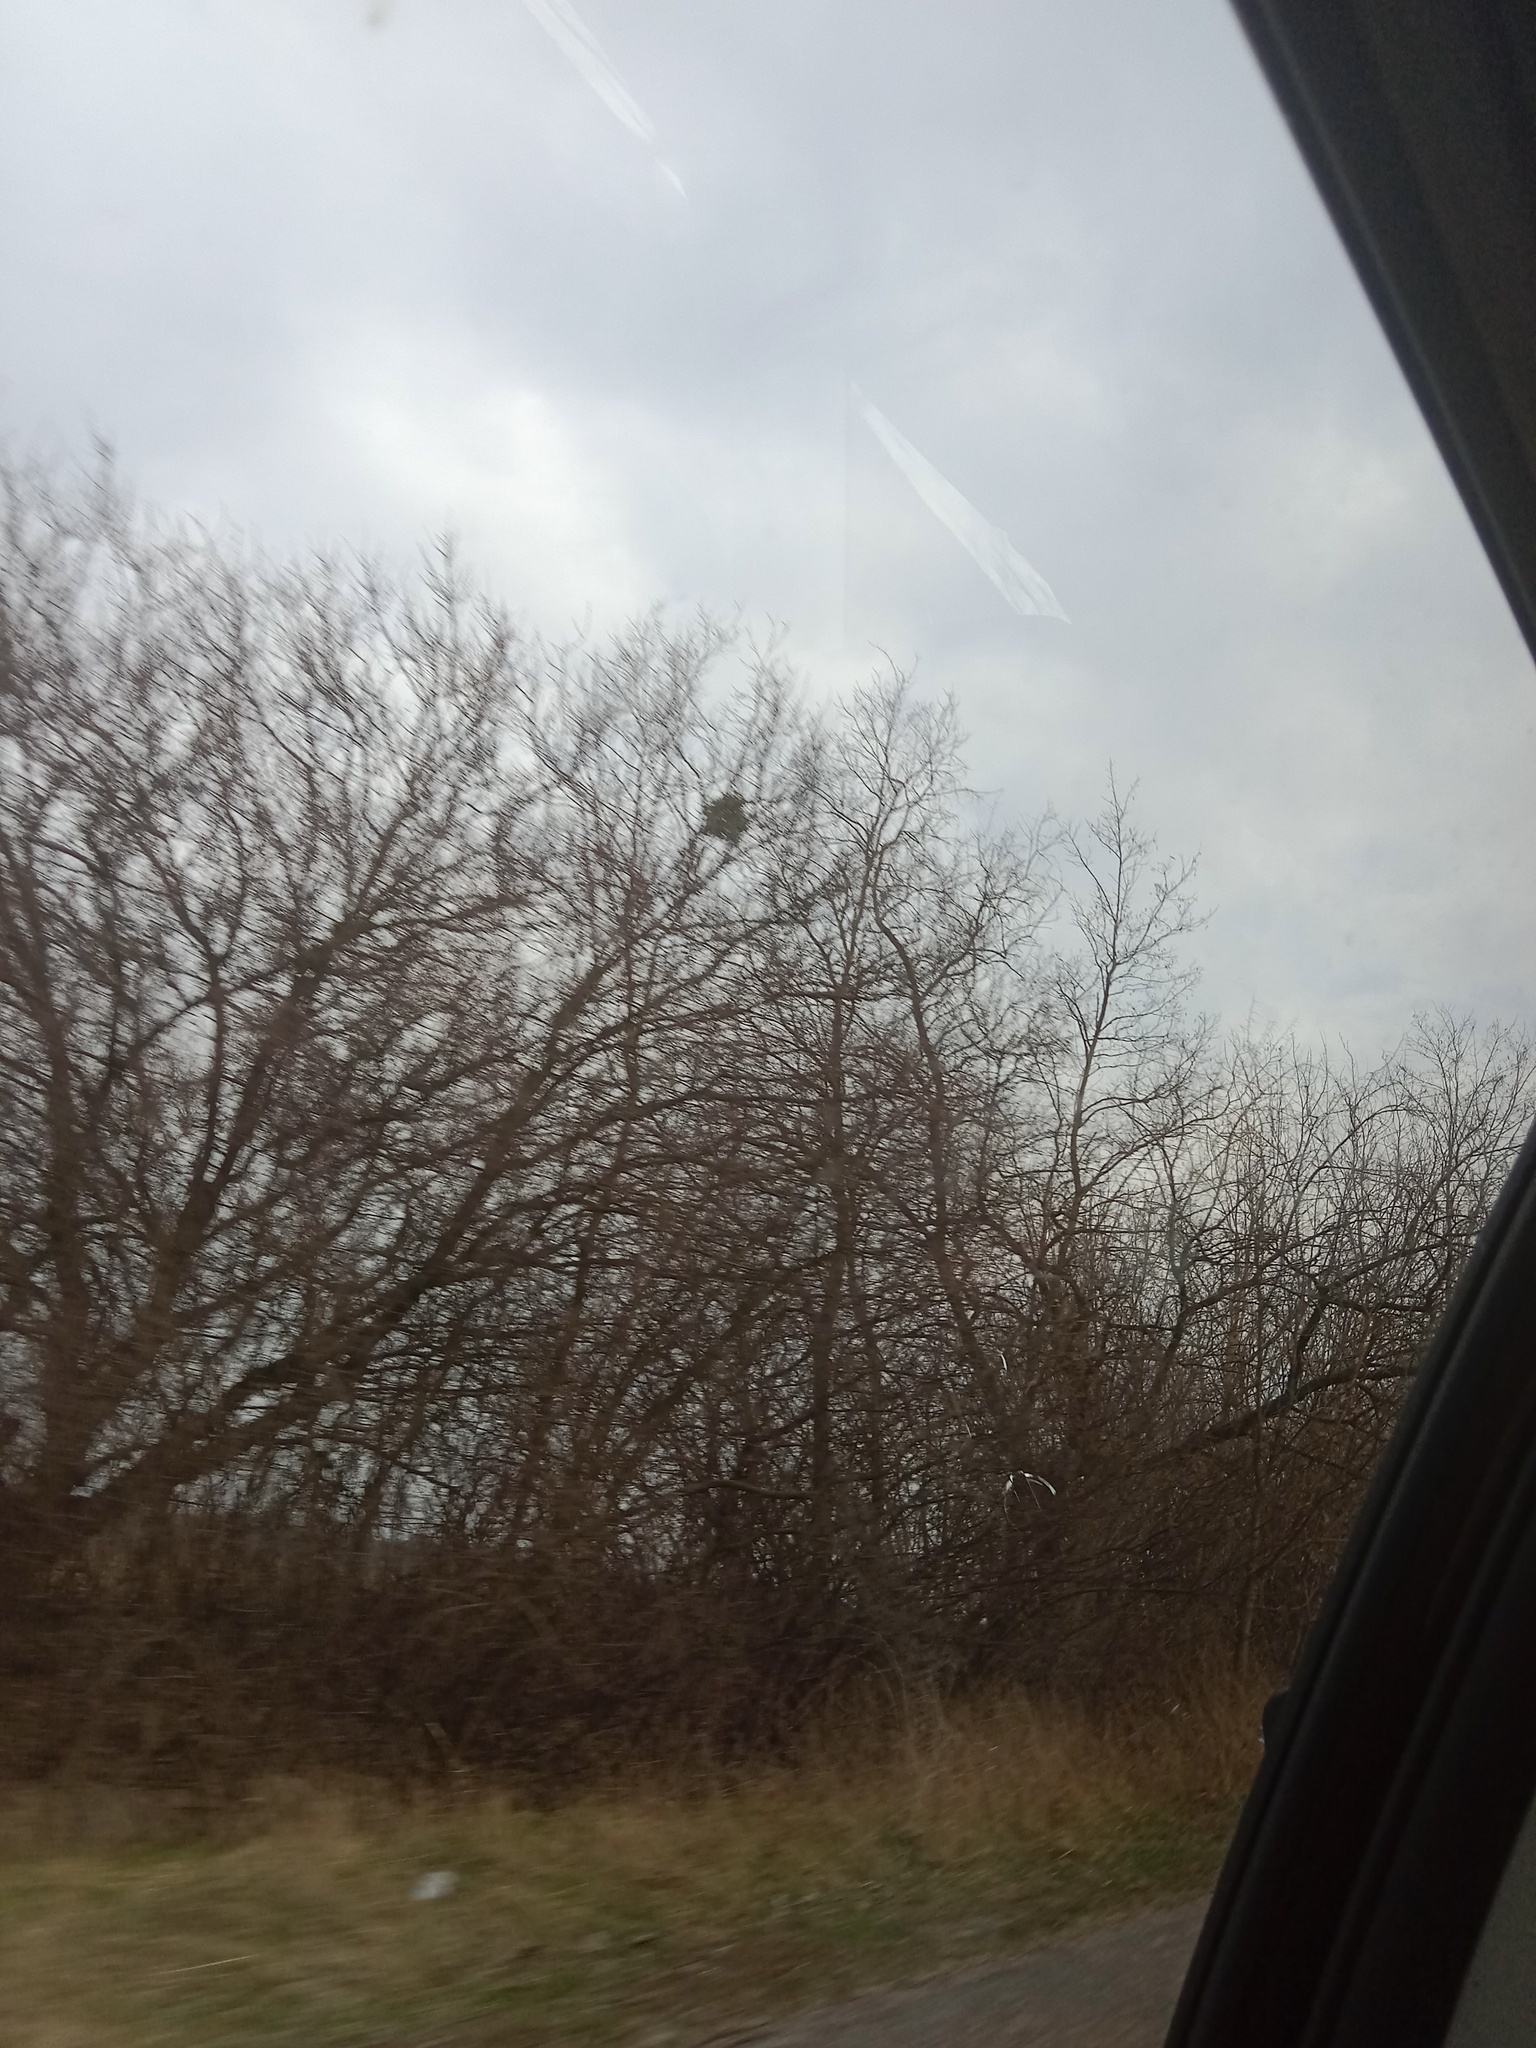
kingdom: Plantae
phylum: Tracheophyta
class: Magnoliopsida
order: Santalales
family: Viscaceae
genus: Viscum
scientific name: Viscum album
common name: Mistletoe
